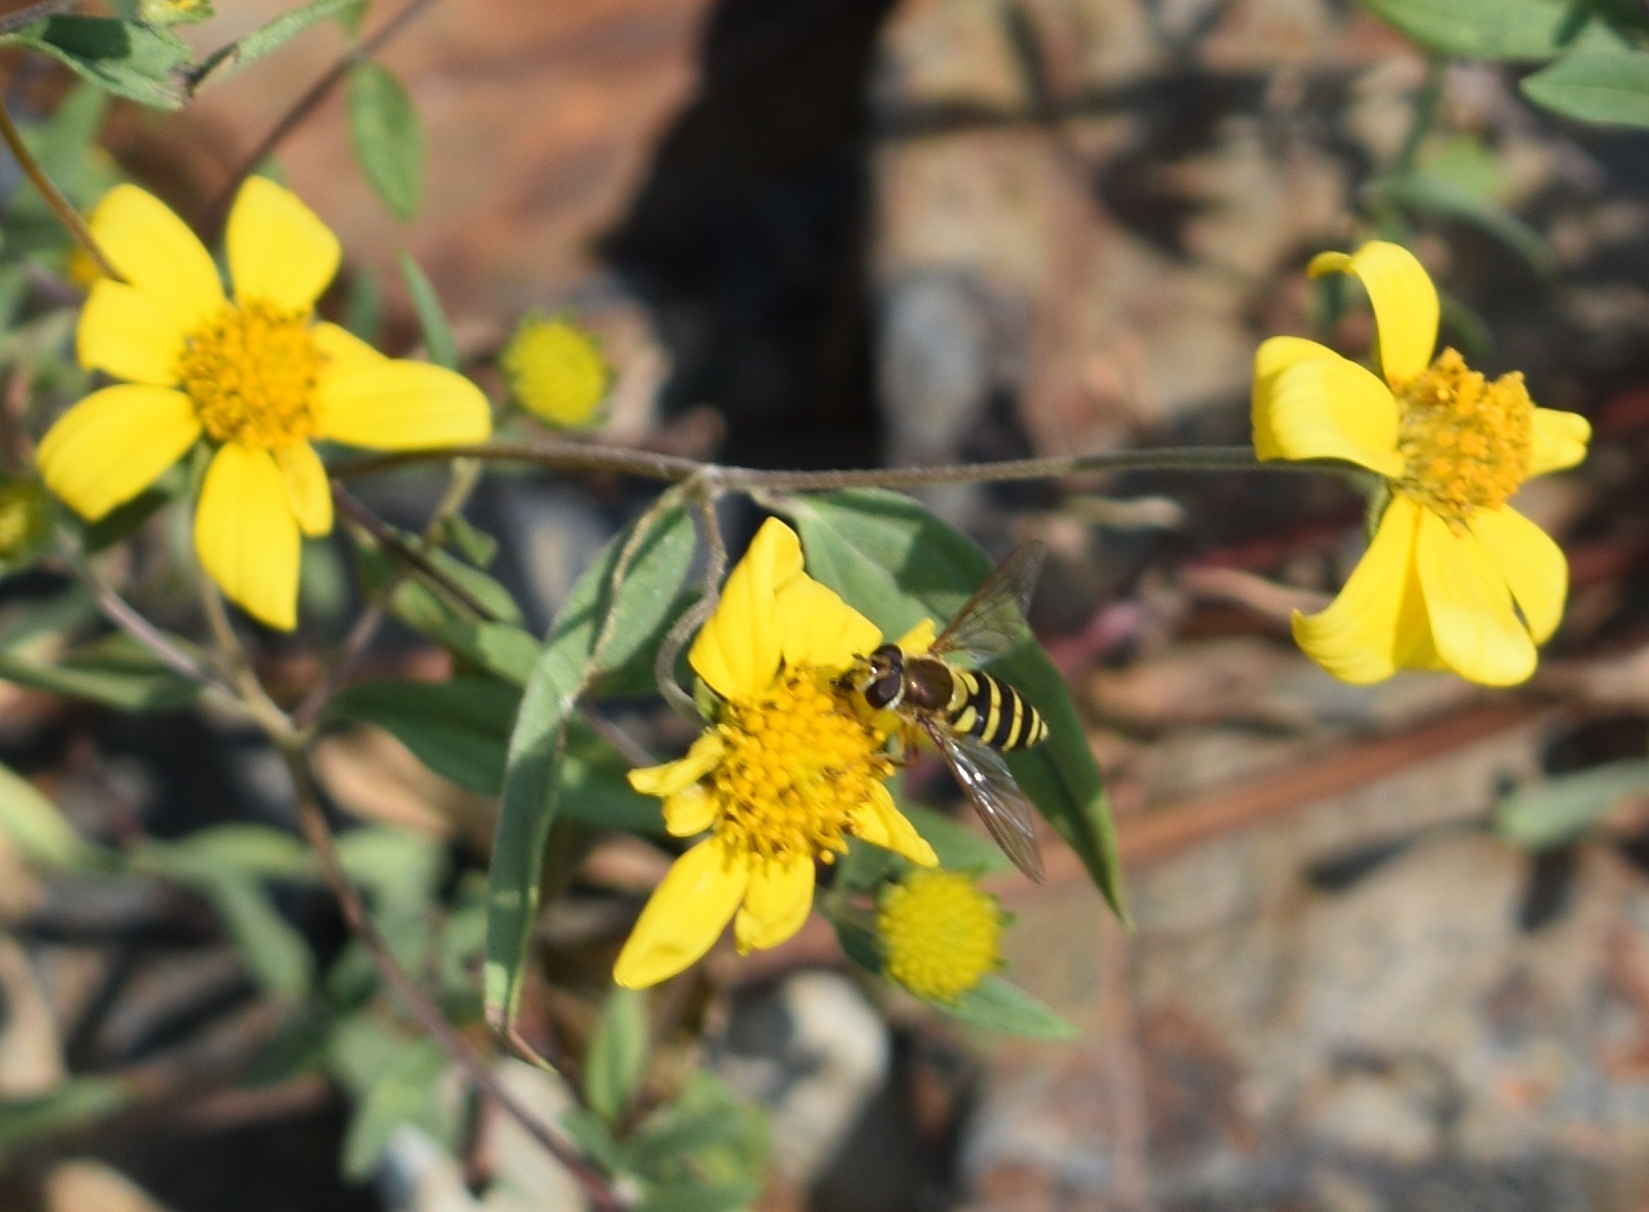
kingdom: Animalia
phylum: Arthropoda
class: Insecta
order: Diptera
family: Syrphidae
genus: Syrphus
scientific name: Syrphus
